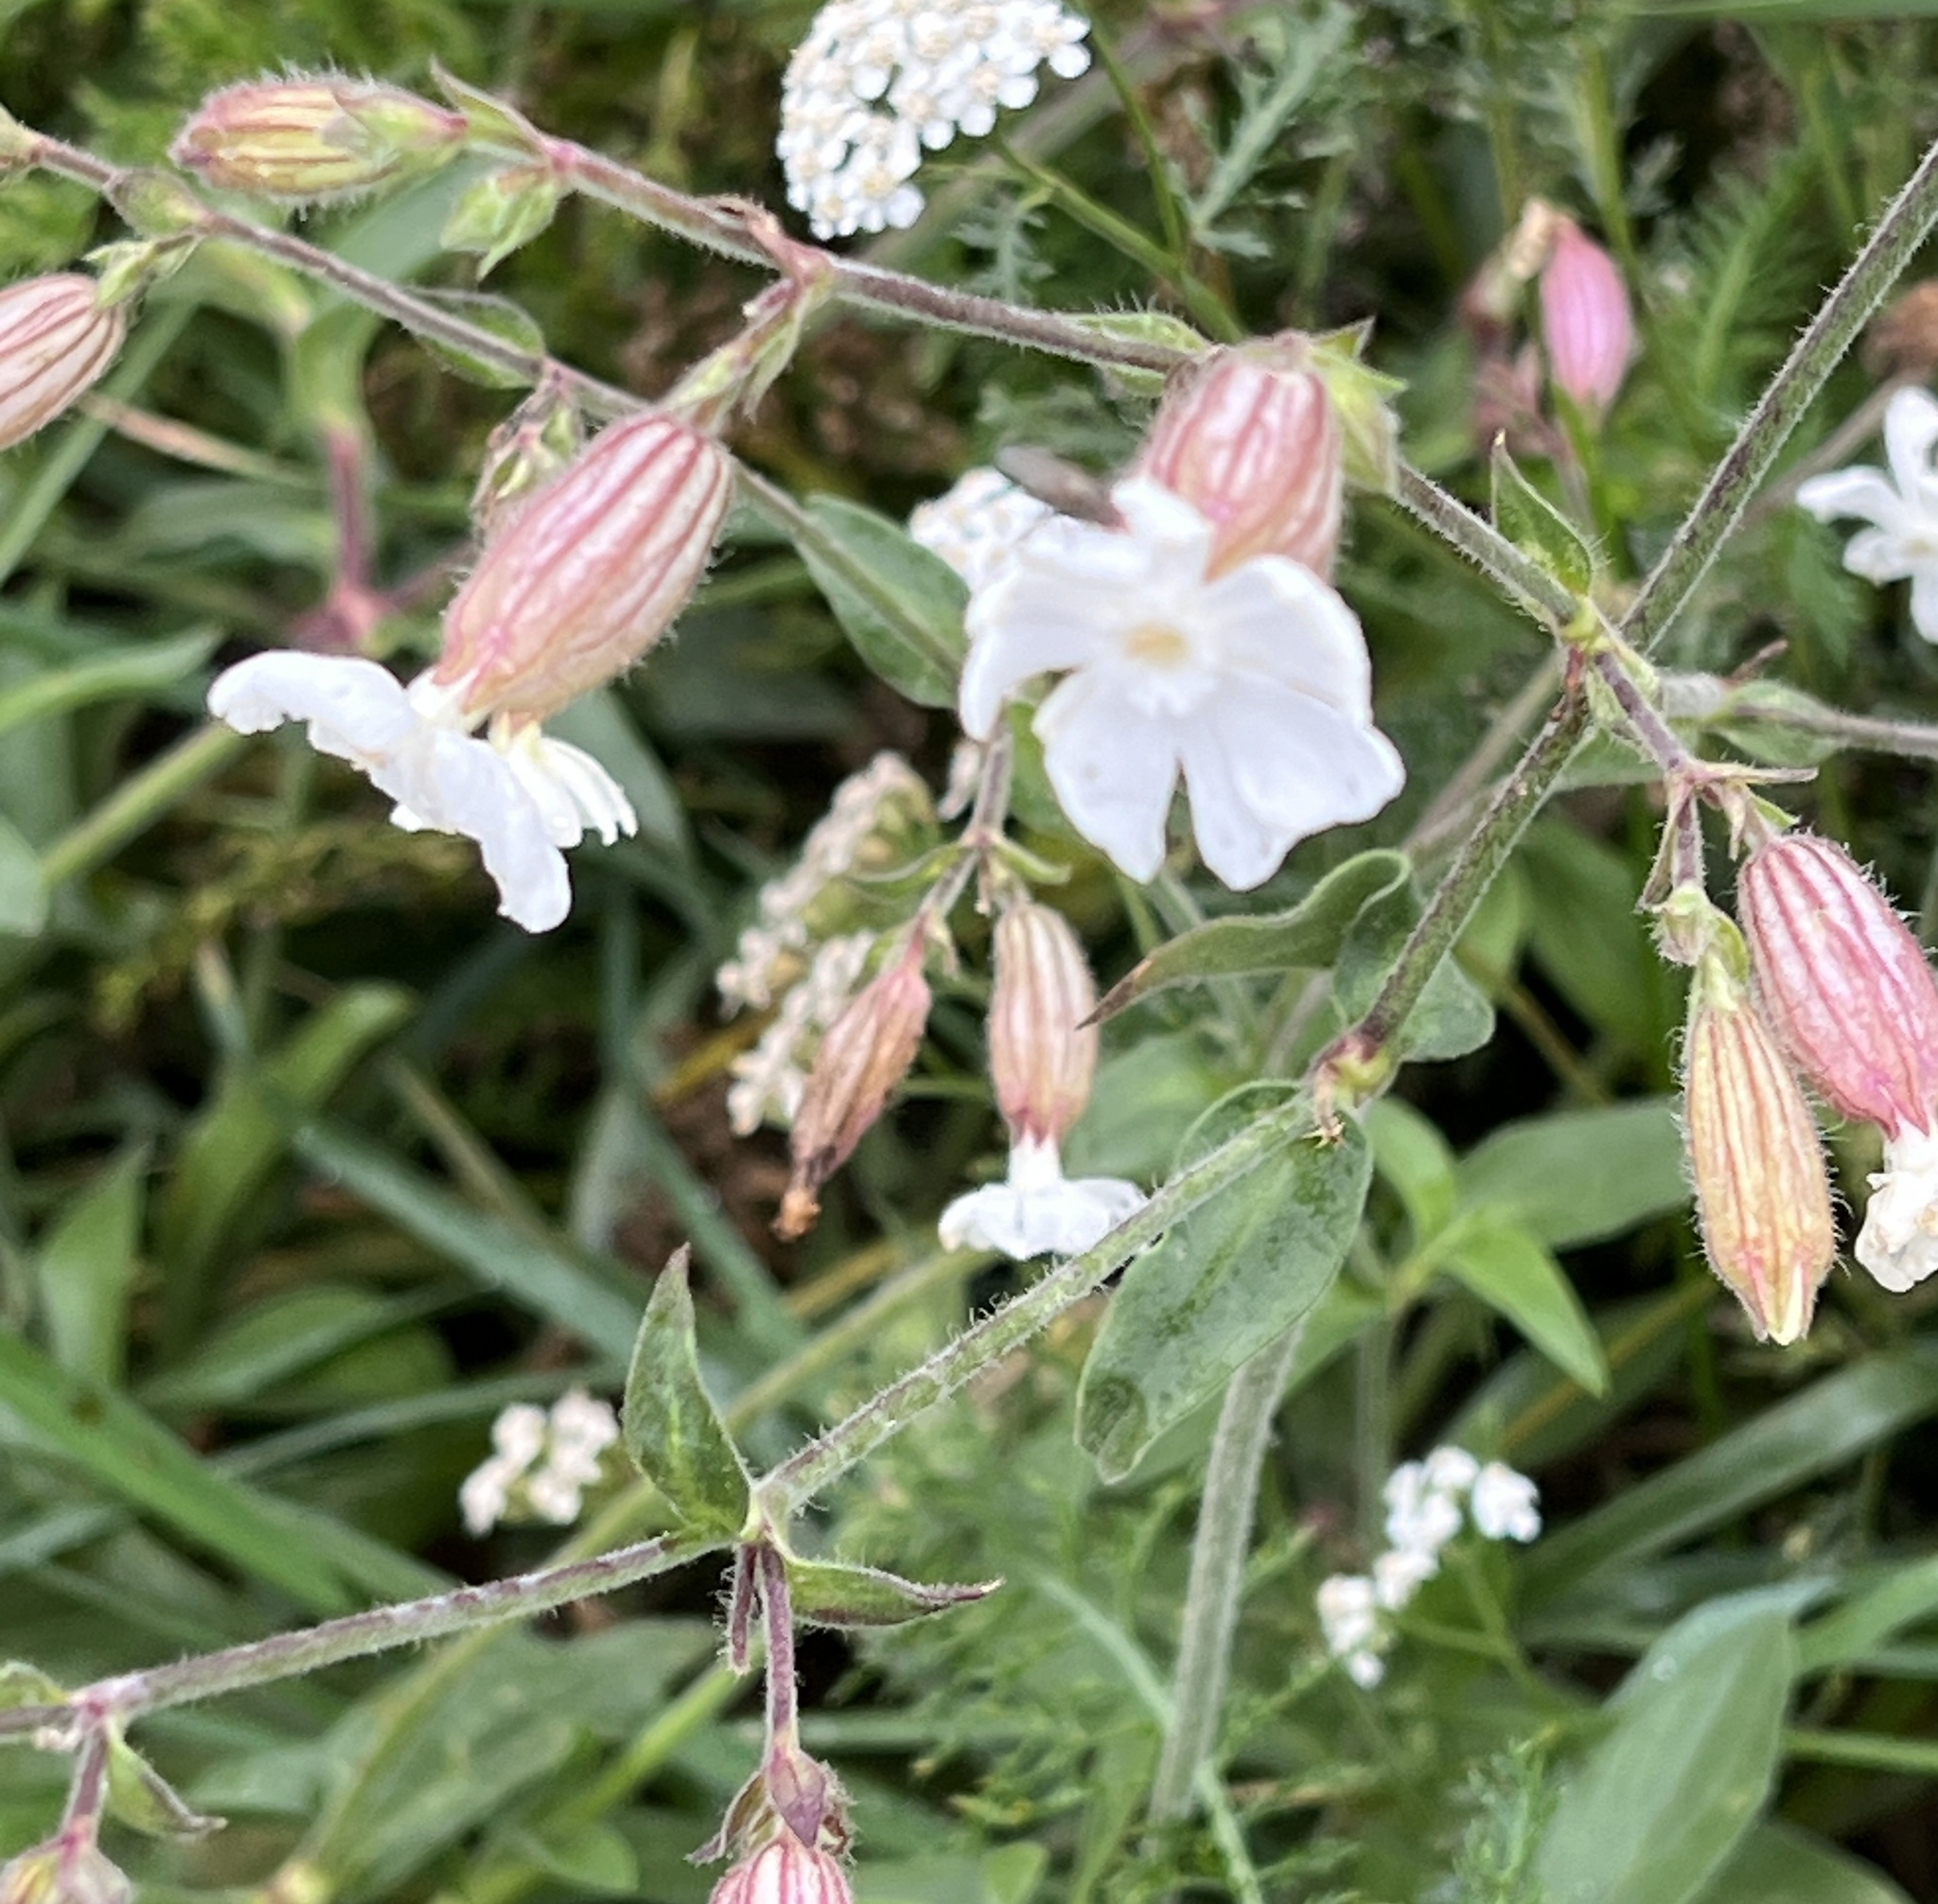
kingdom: Plantae
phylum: Tracheophyta
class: Magnoliopsida
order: Caryophyllales
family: Caryophyllaceae
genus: Silene
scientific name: Silene latifolia
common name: White campion
